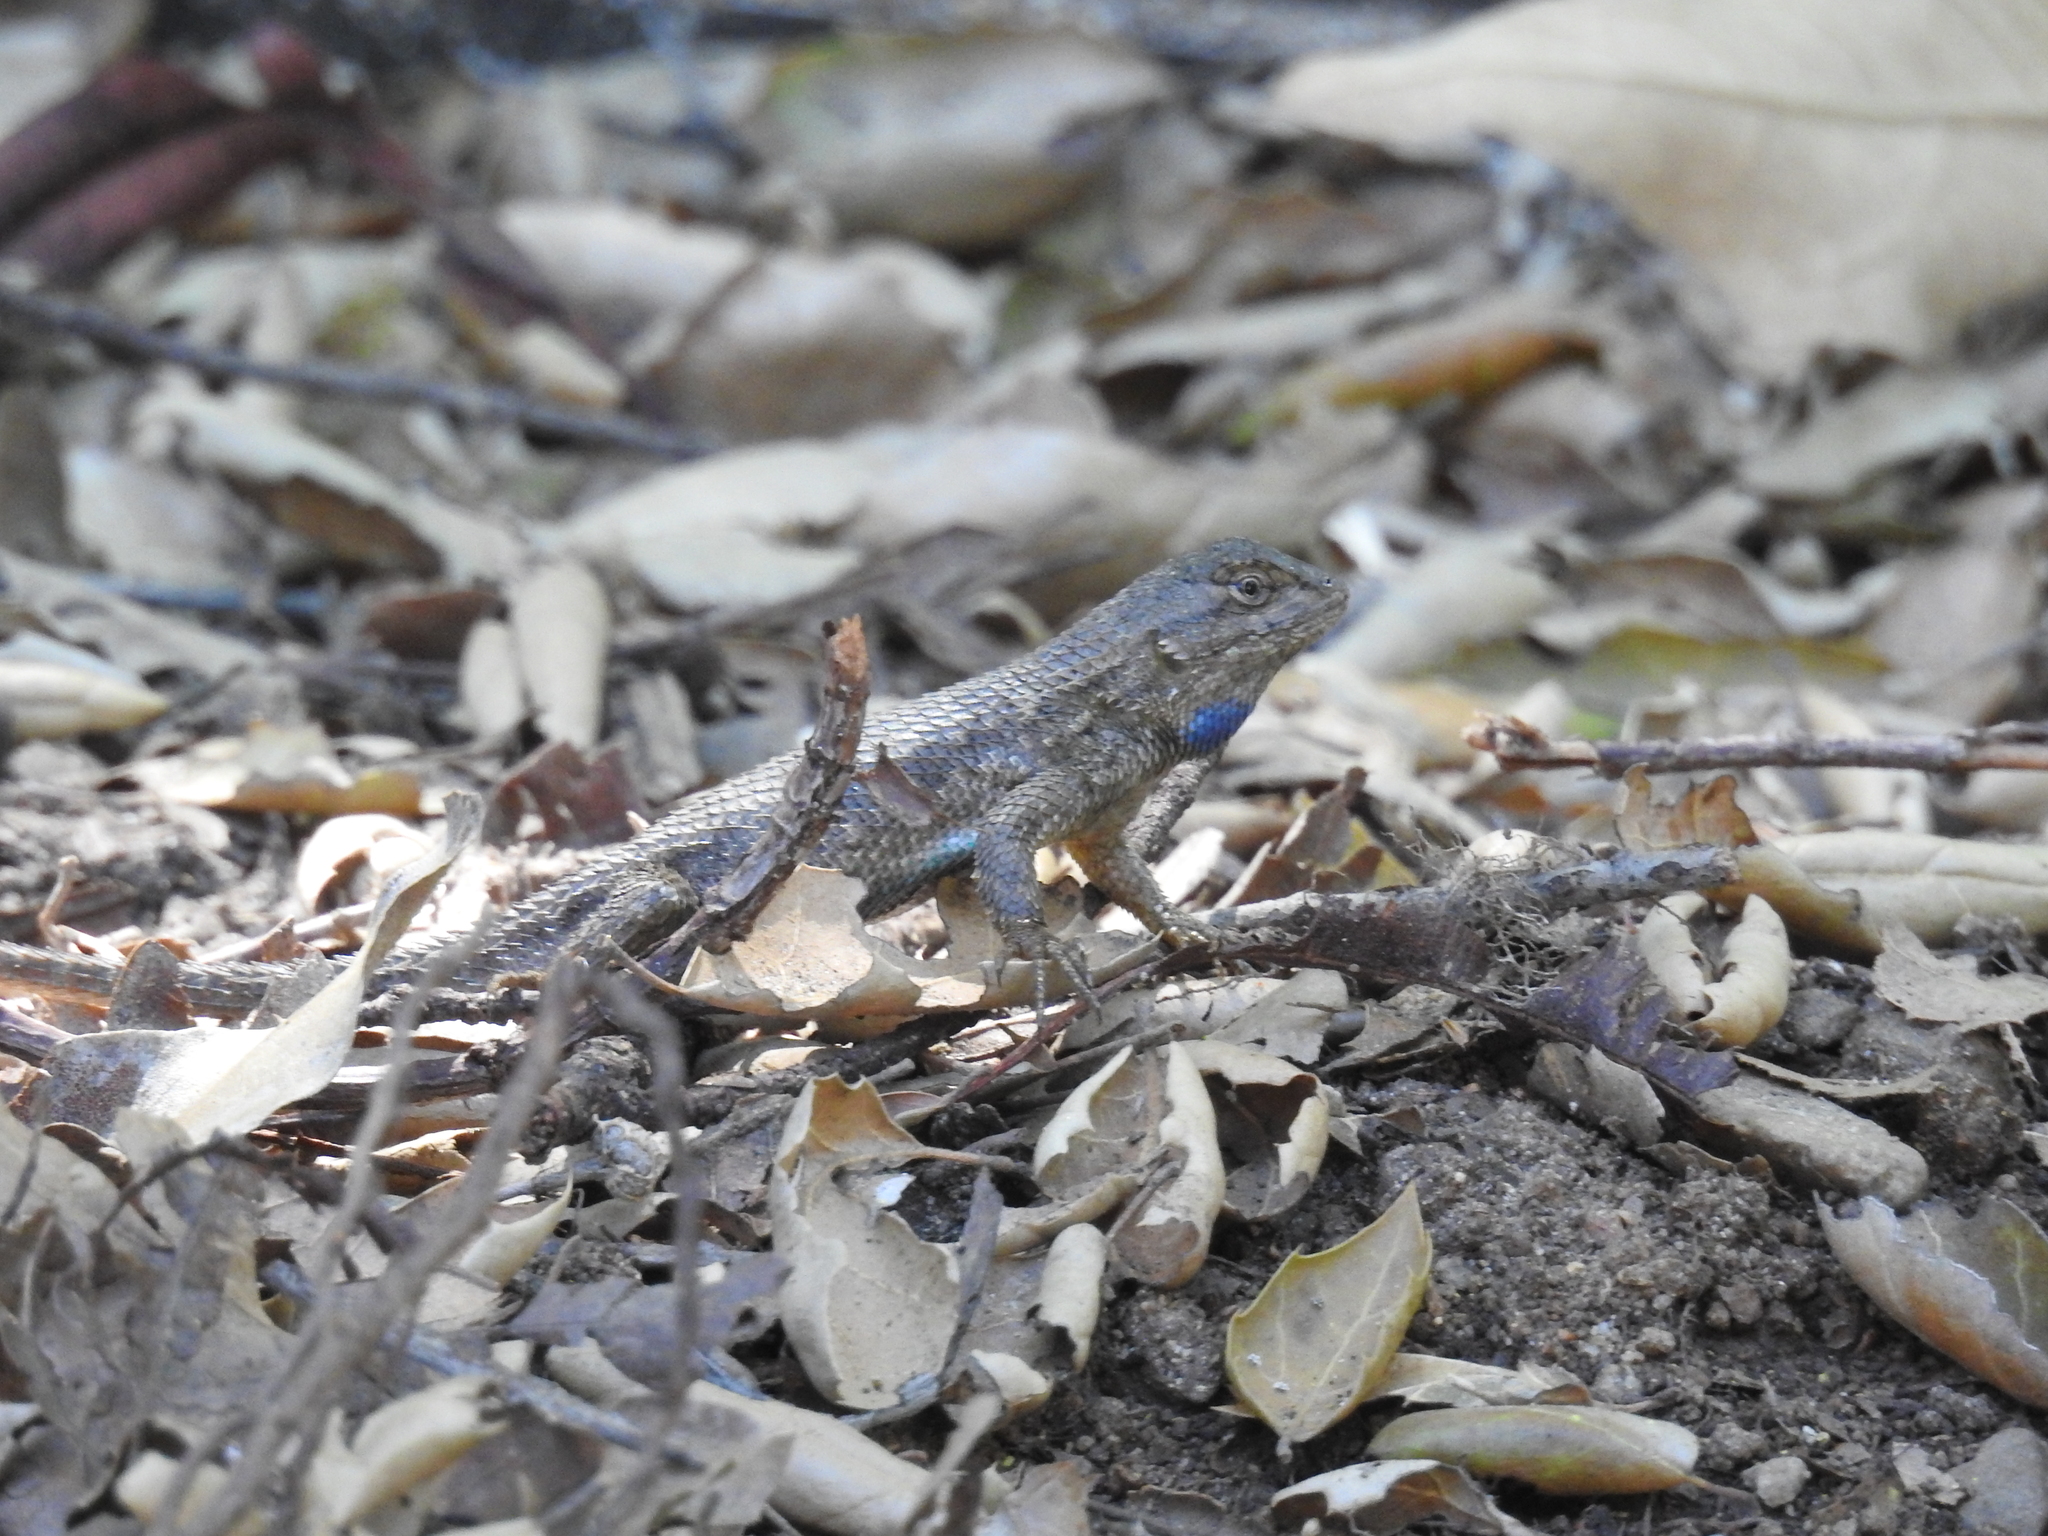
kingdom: Animalia
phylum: Chordata
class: Squamata
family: Phrynosomatidae
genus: Sceloporus
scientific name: Sceloporus occidentalis
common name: Western fence lizard
